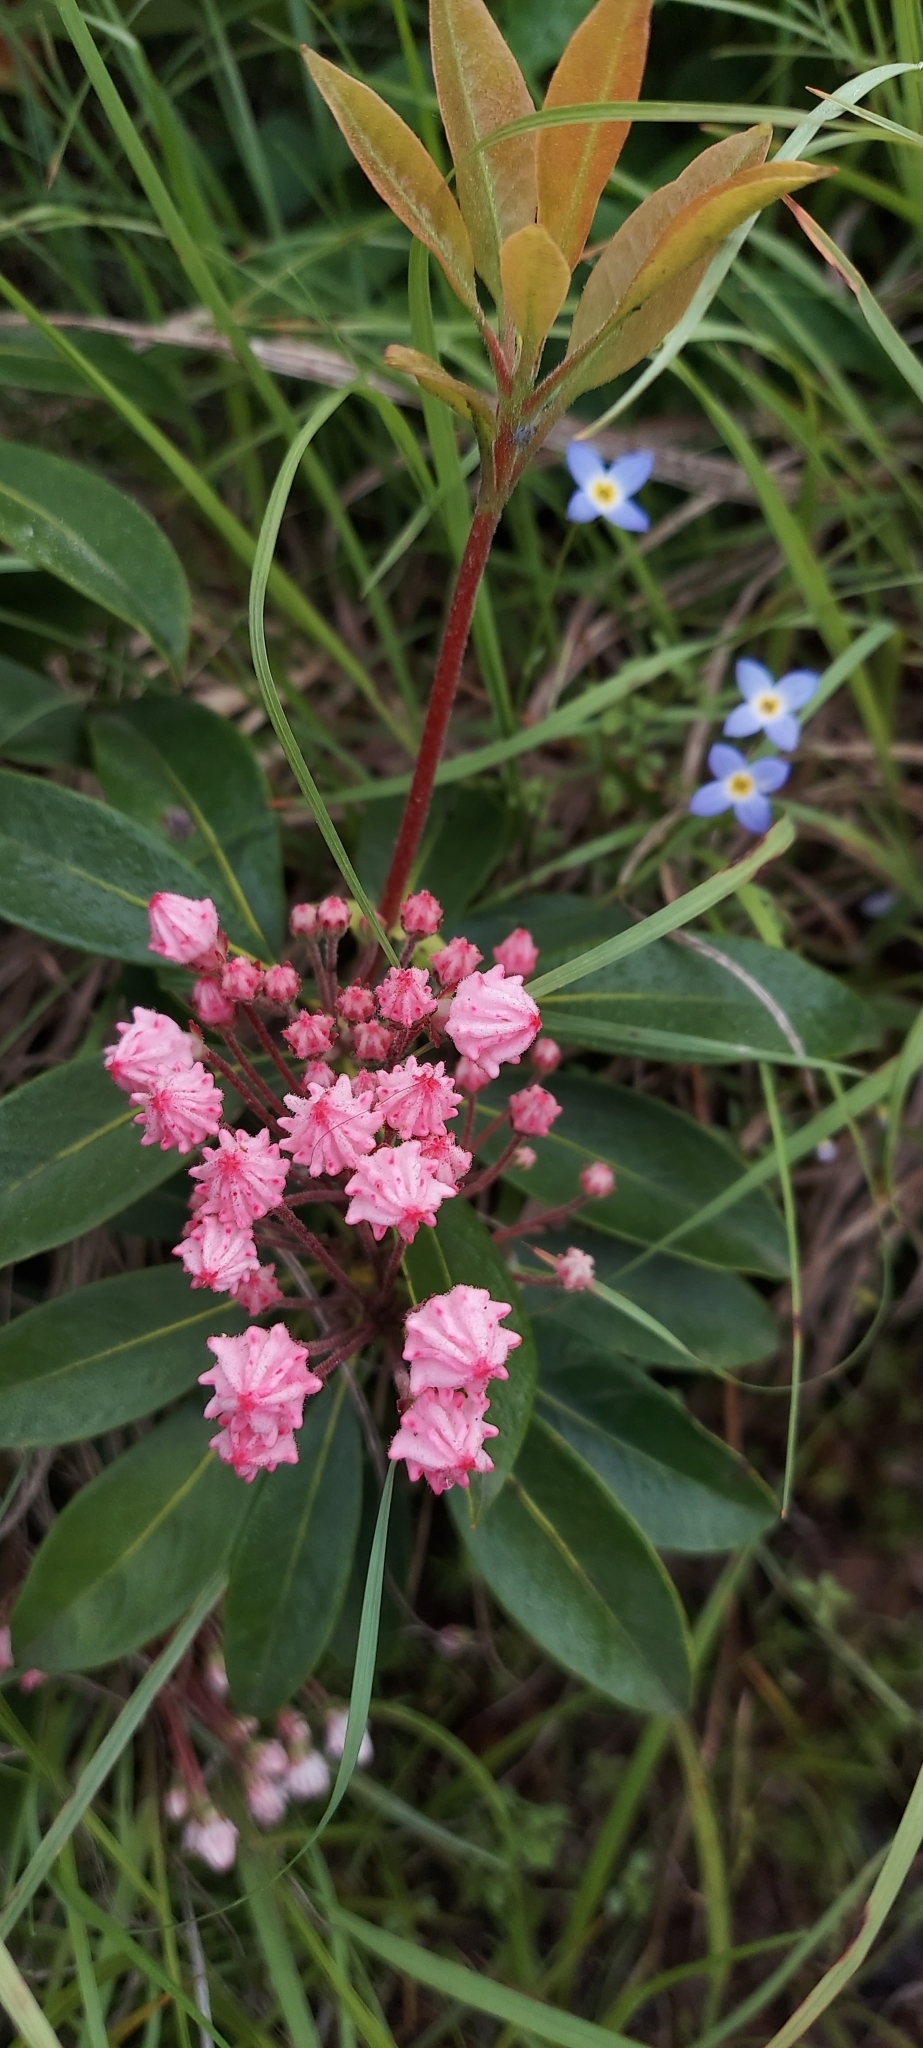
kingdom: Plantae
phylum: Tracheophyta
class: Magnoliopsida
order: Ericales
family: Ericaceae
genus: Kalmia
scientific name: Kalmia latifolia
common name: Mountain-laurel
